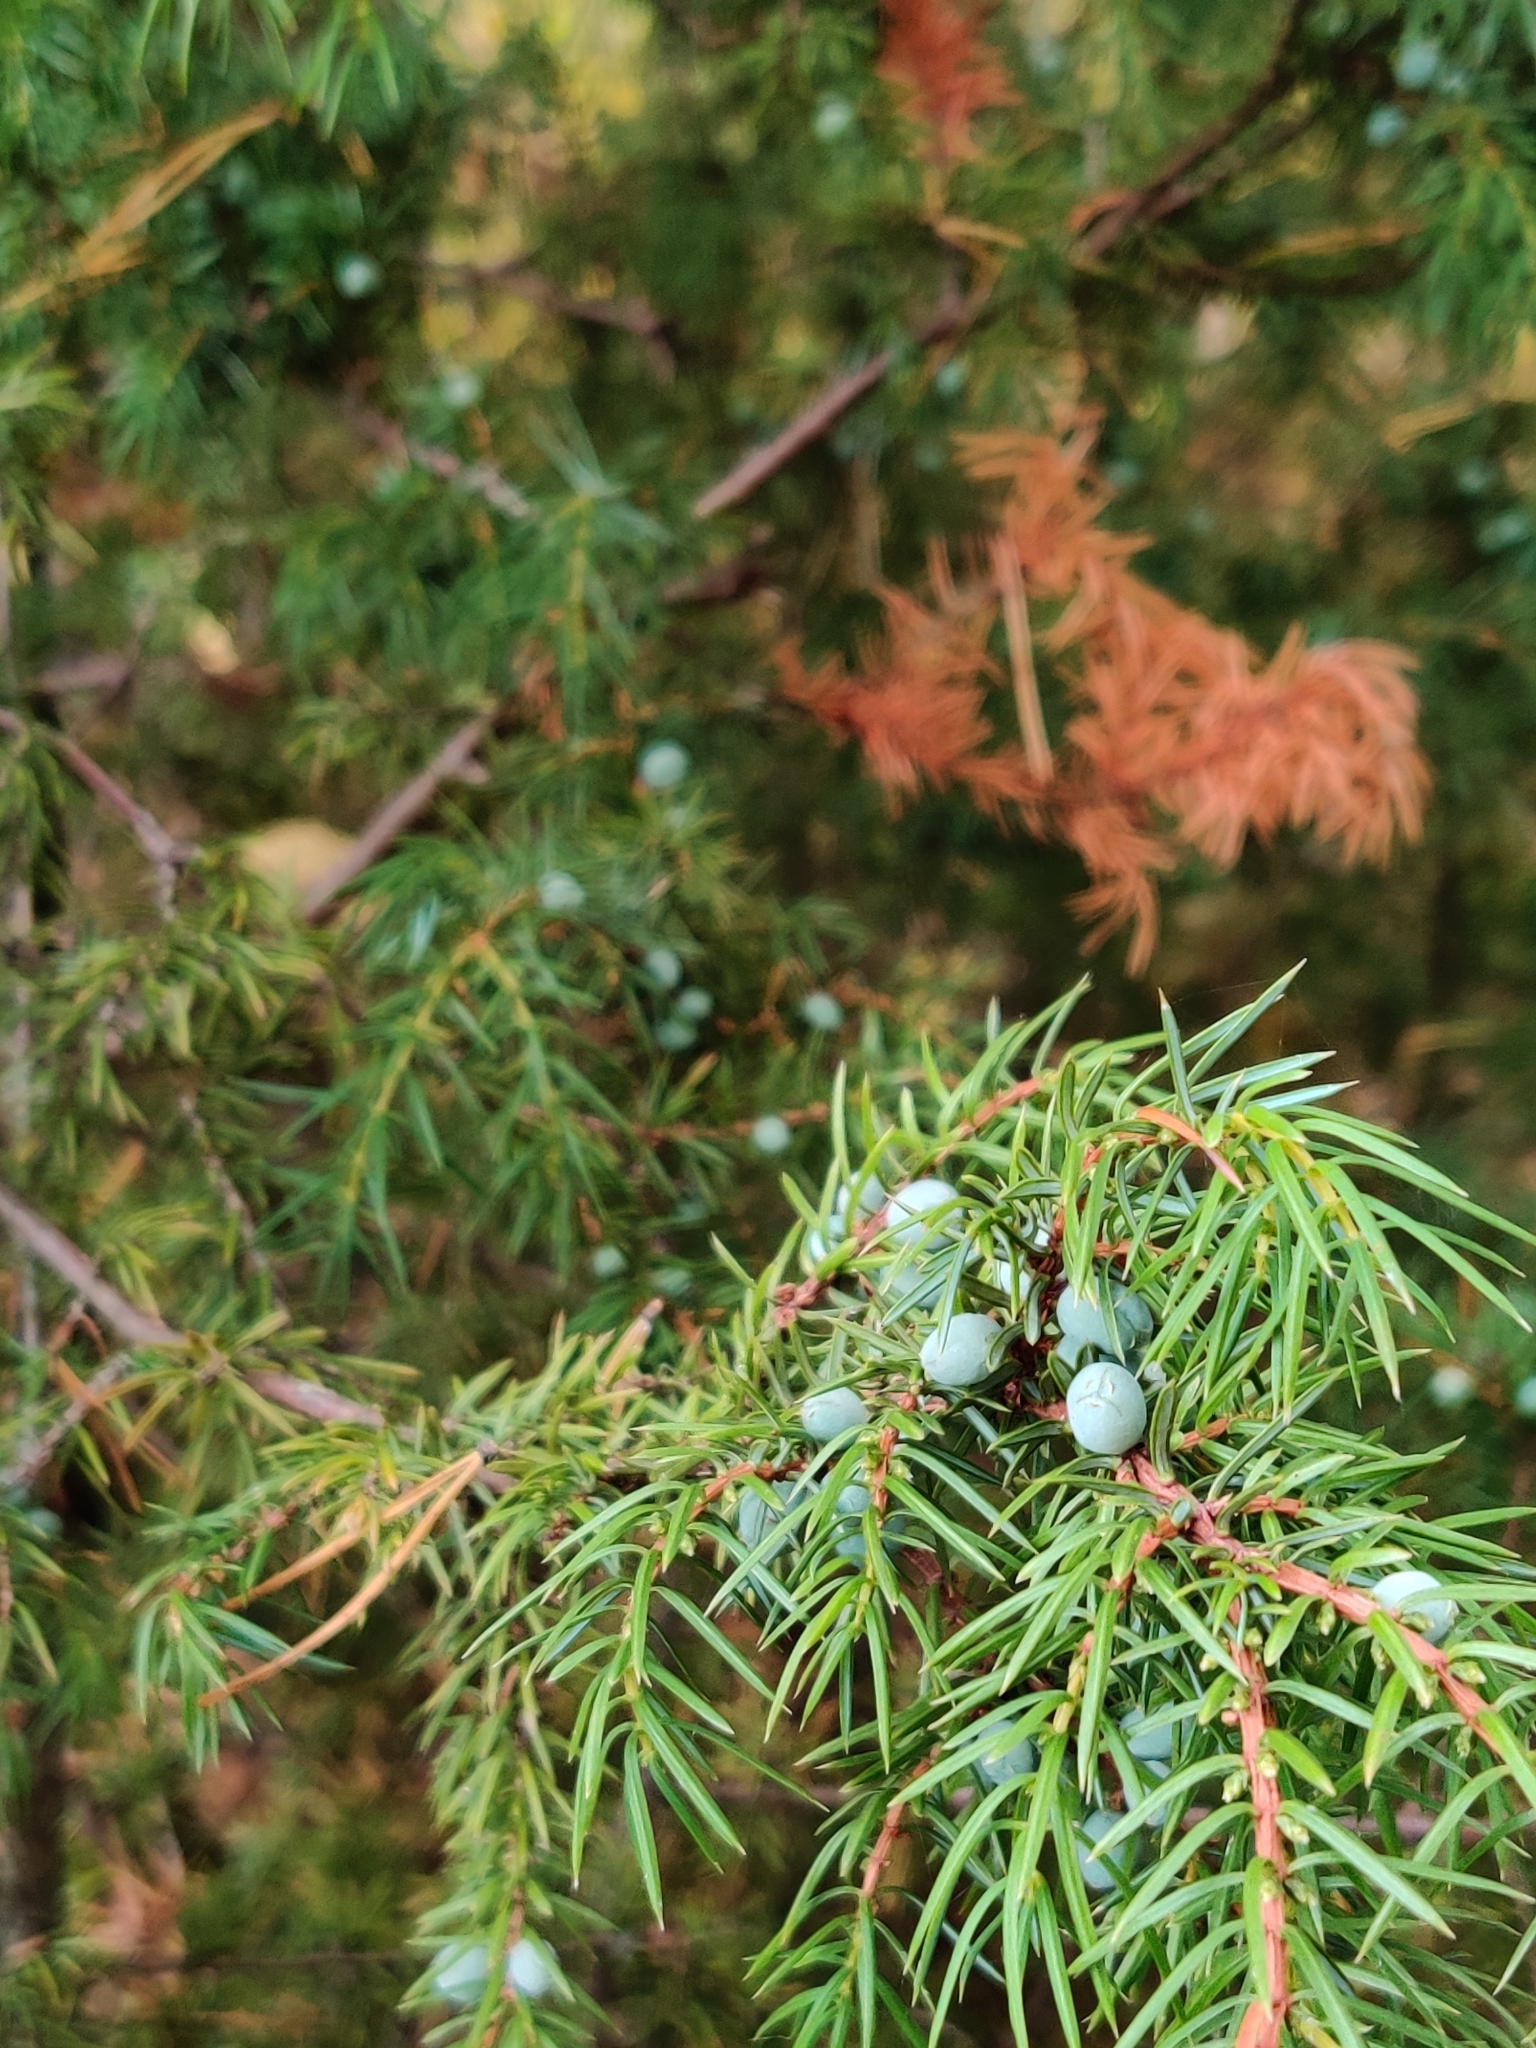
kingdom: Plantae
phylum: Tracheophyta
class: Pinopsida
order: Pinales
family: Cupressaceae
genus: Juniperus
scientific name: Juniperus communis
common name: Common juniper
